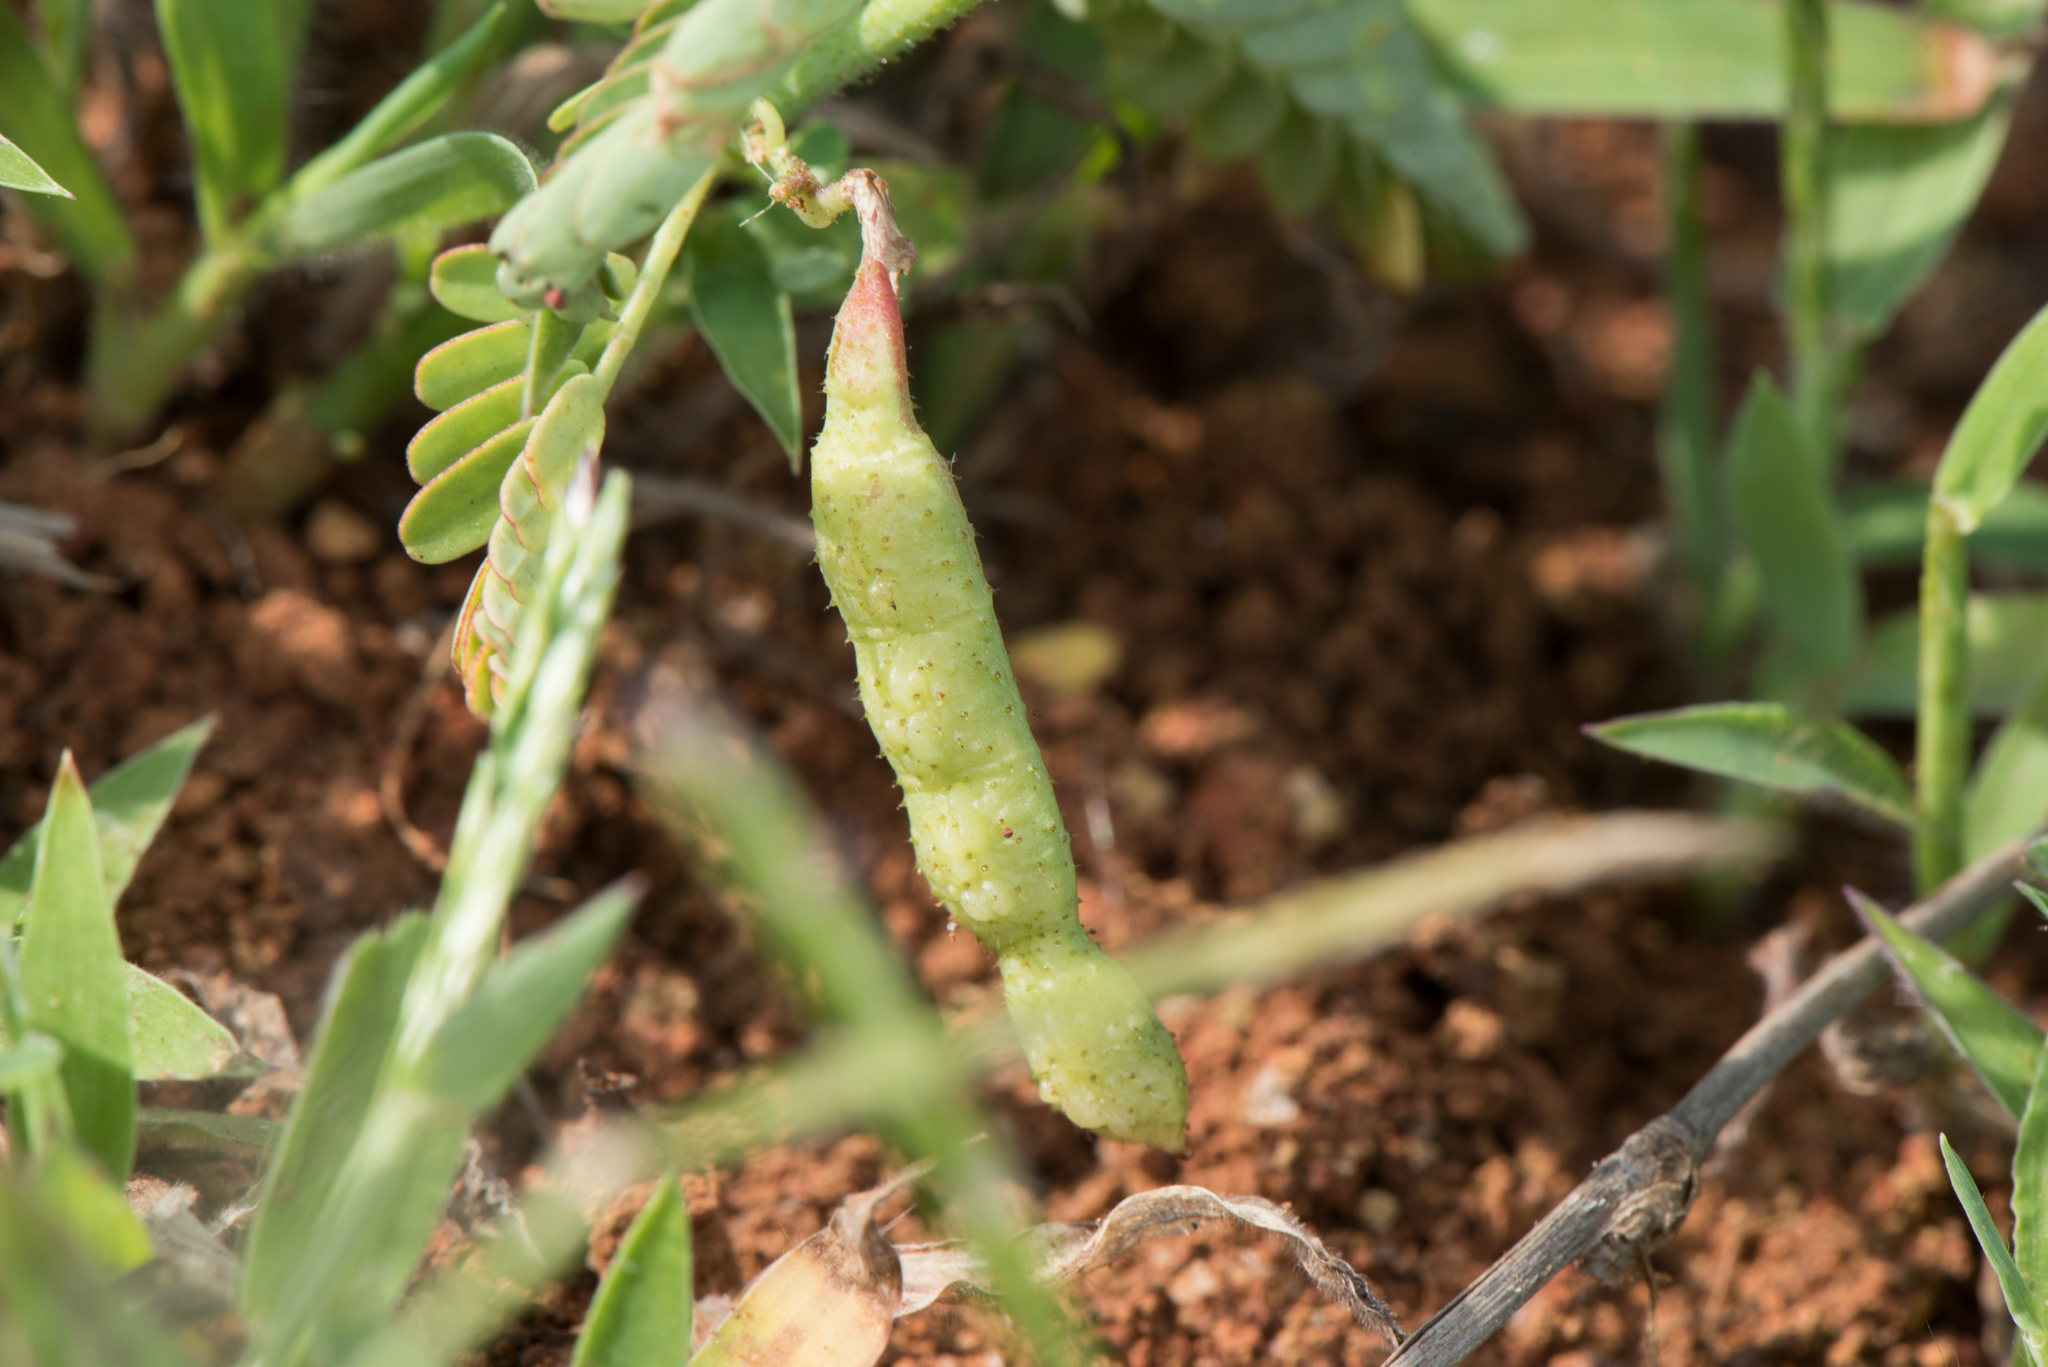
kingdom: Plantae
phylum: Tracheophyta
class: Magnoliopsida
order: Fabales
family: Fabaceae
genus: Aeschynomene
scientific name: Aeschynomene indica
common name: Indian jointvetch
